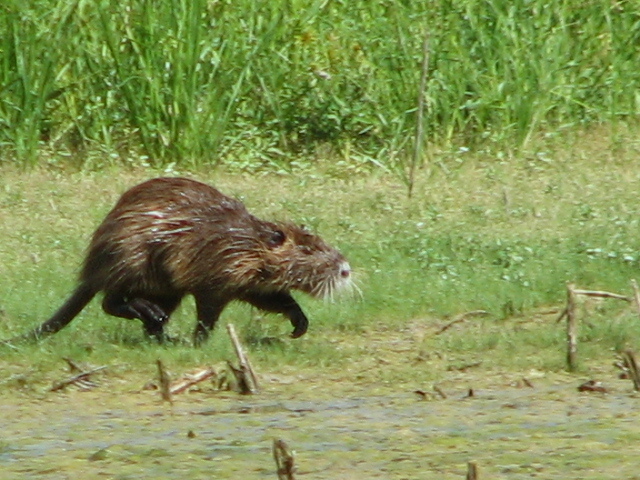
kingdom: Animalia
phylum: Chordata
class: Mammalia
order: Rodentia
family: Myocastoridae
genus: Myocastor
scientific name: Myocastor coypus
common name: Coypu
